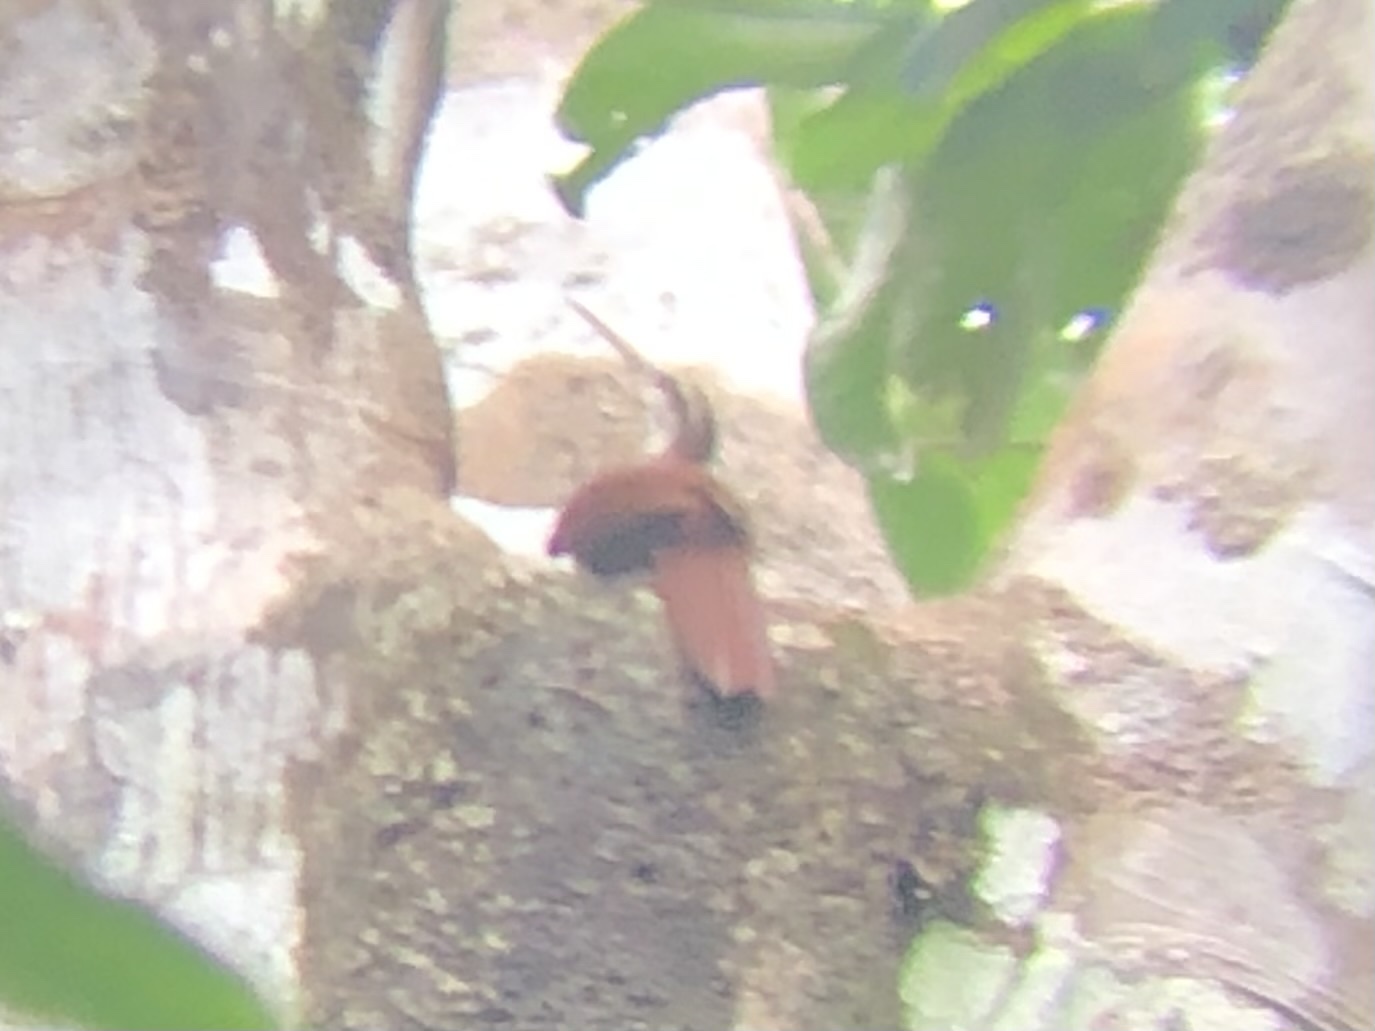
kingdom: Animalia
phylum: Chordata
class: Aves
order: Passeriformes
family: Furnariidae
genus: Nasica
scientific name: Nasica longirostris
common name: Long-billed woodcreeper
